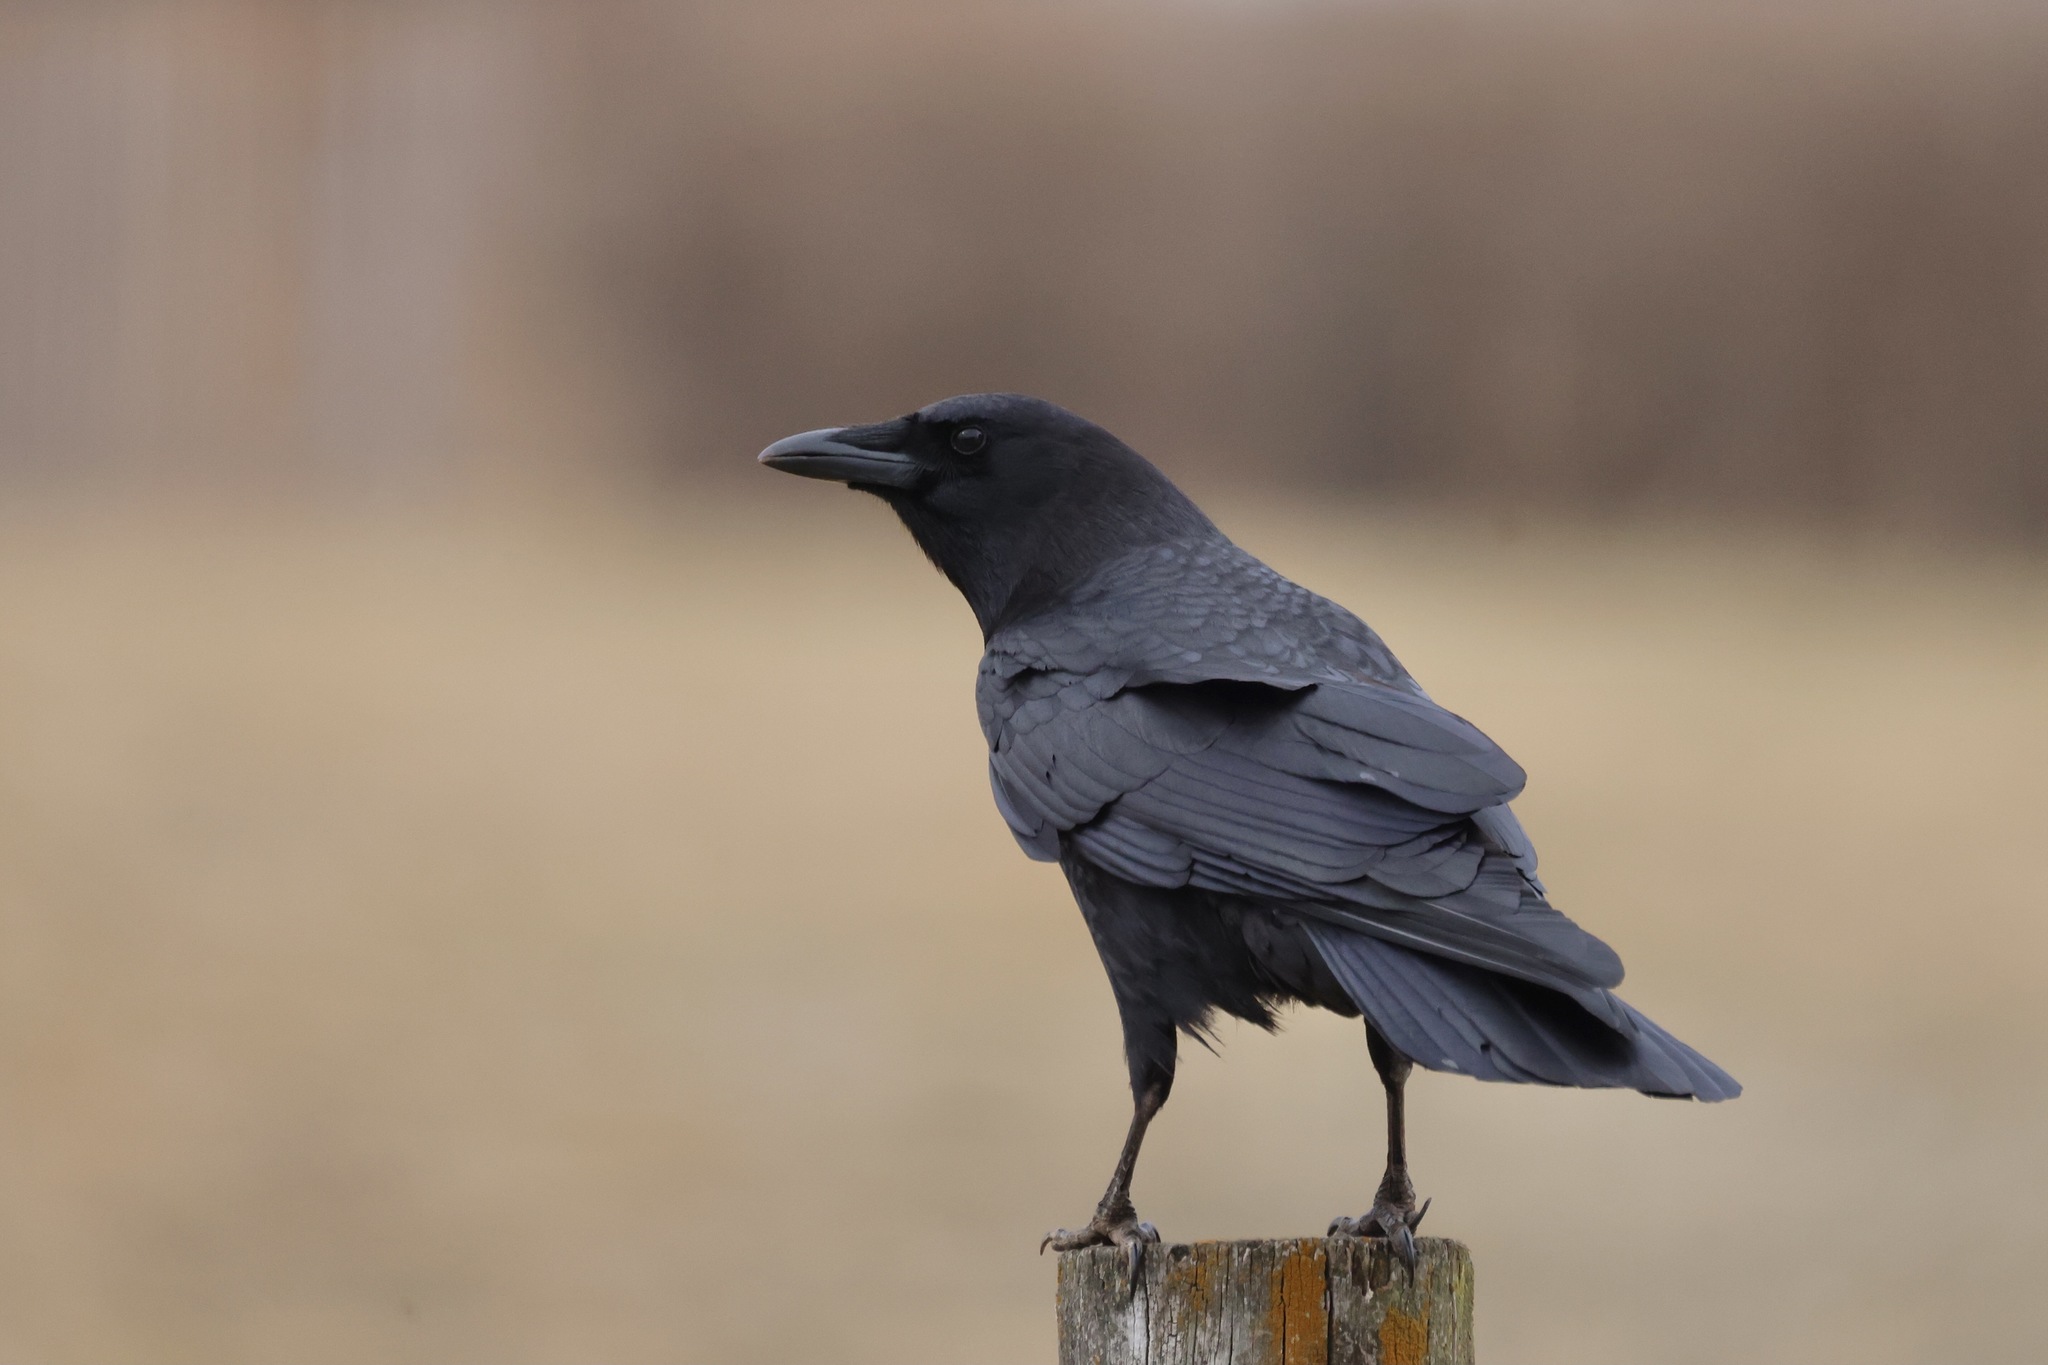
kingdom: Animalia
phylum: Chordata
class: Aves
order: Passeriformes
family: Corvidae
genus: Corvus
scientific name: Corvus brachyrhynchos
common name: American crow
